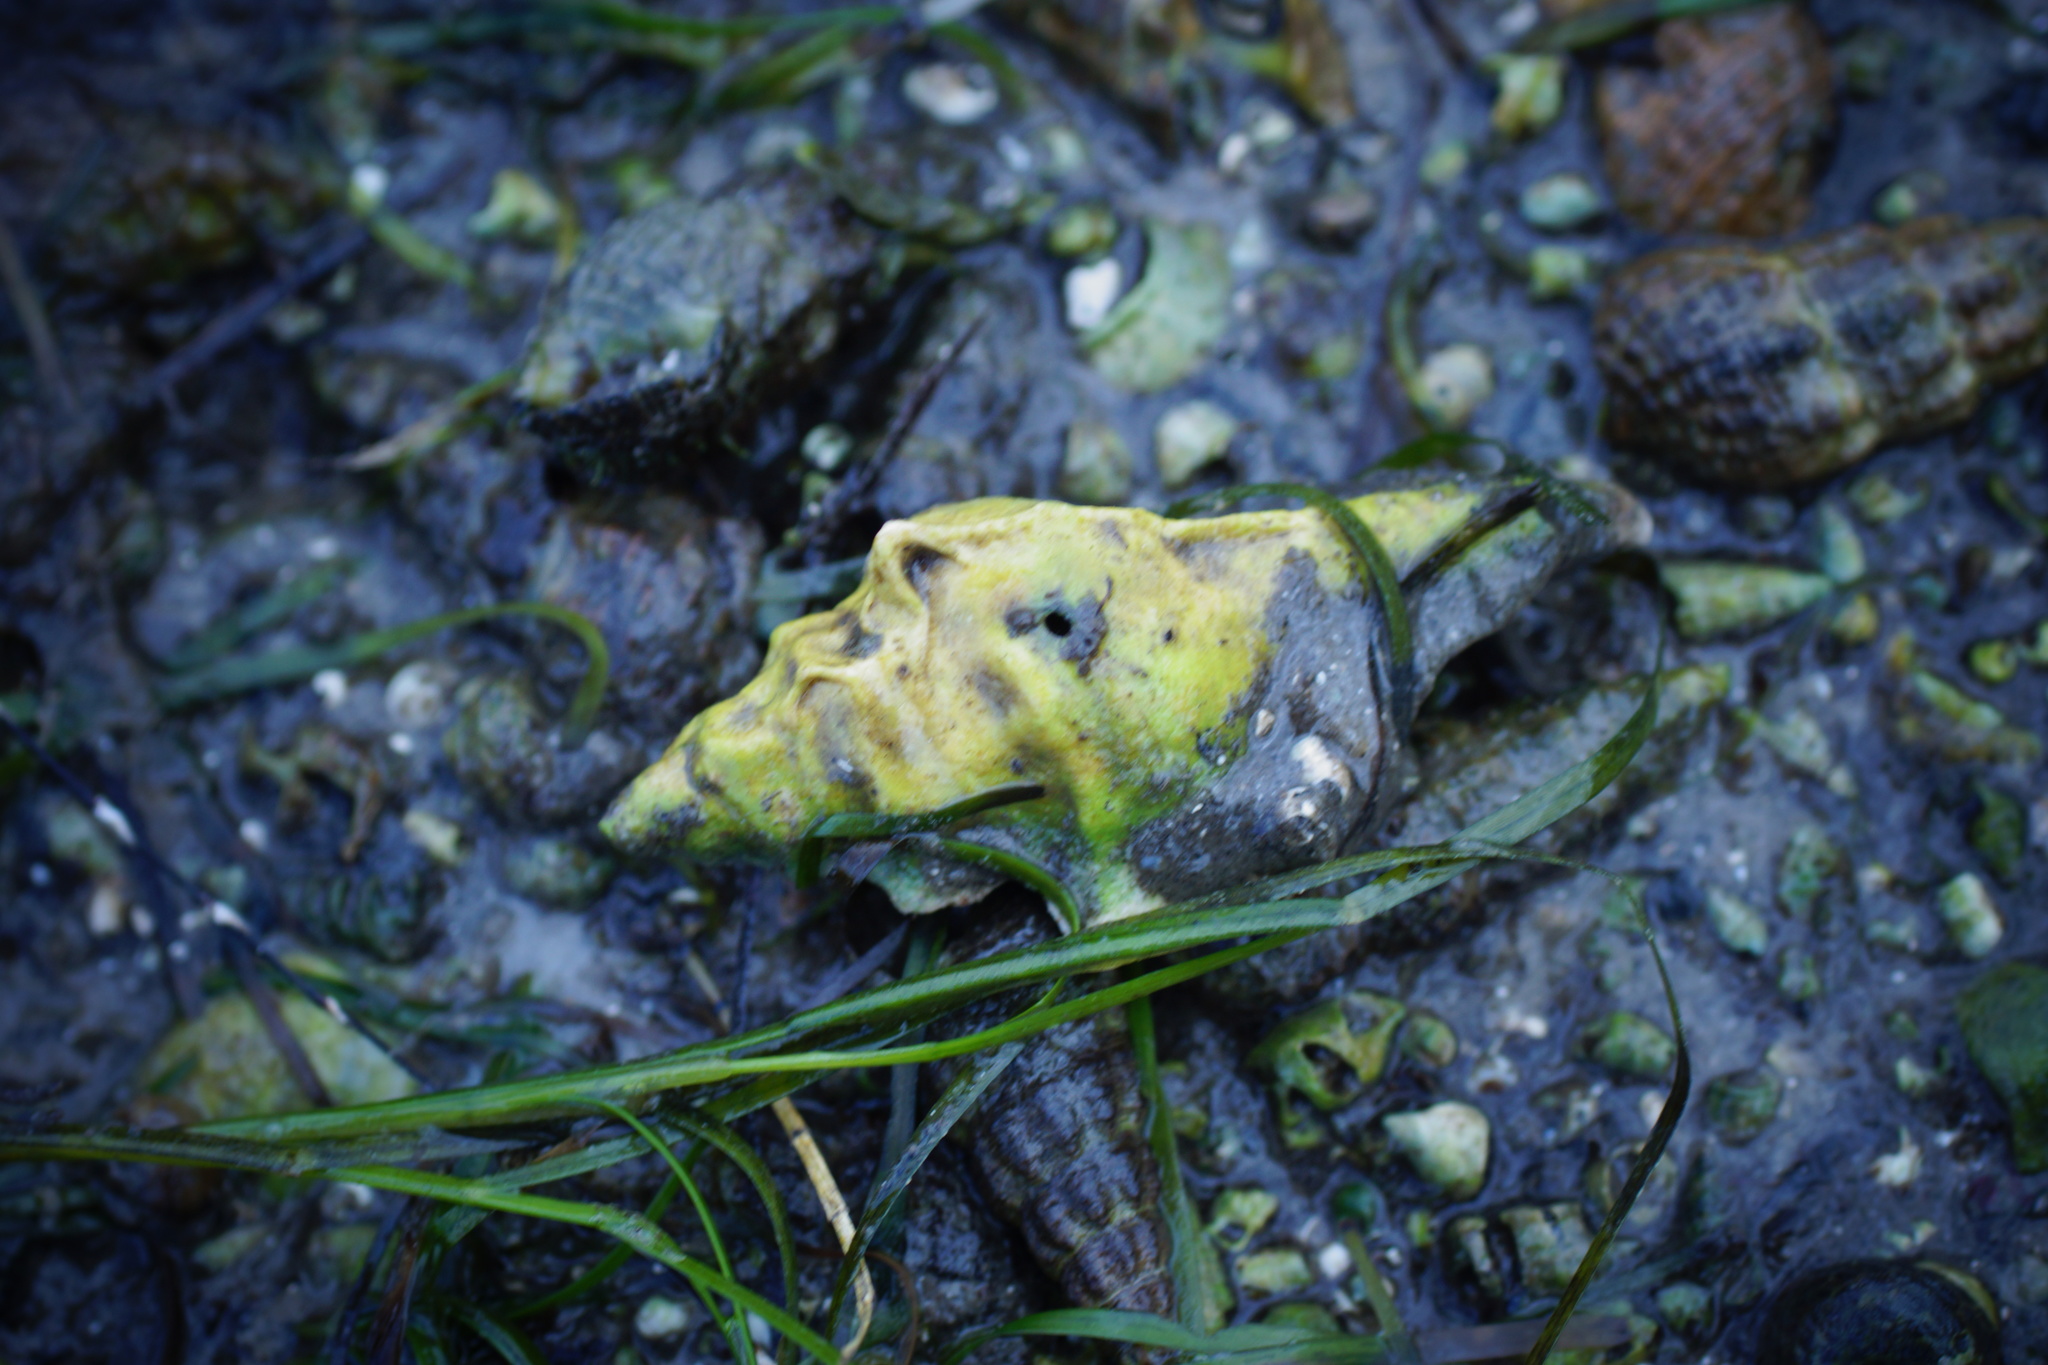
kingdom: Animalia
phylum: Mollusca
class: Gastropoda
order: Neogastropoda
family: Muricidae
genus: Pterochelus
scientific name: Pterochelus triformis
